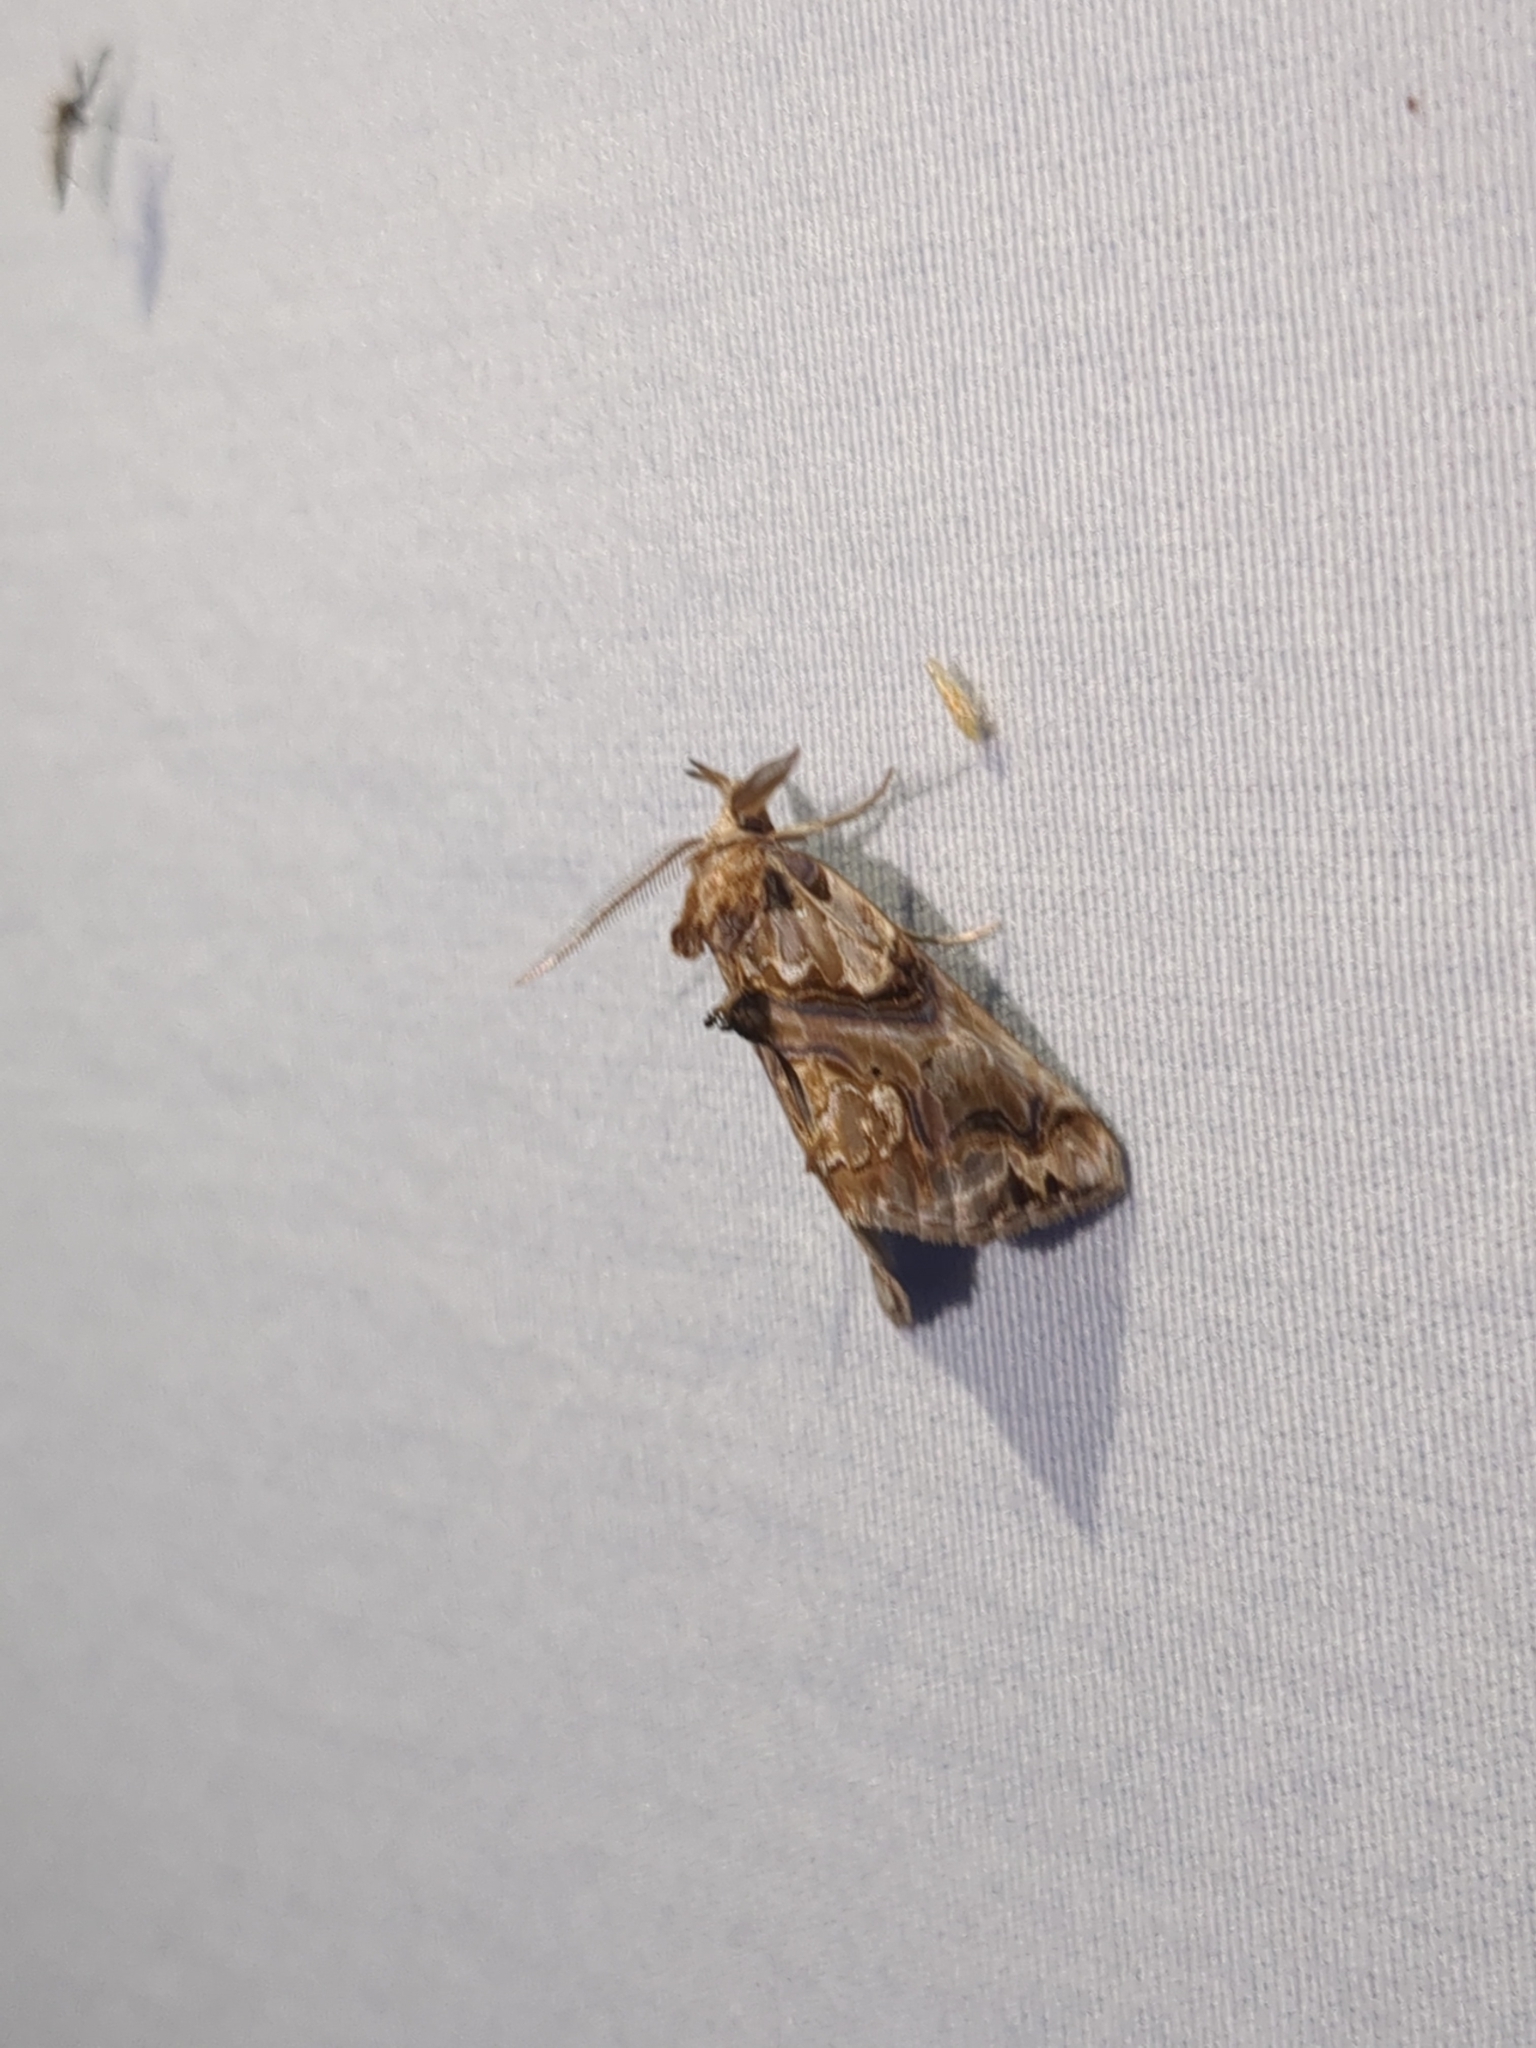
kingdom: Animalia
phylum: Arthropoda
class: Insecta
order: Lepidoptera
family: Erebidae
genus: Plusiodonta
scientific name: Plusiodonta compressipalpis
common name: Moonseed moth
